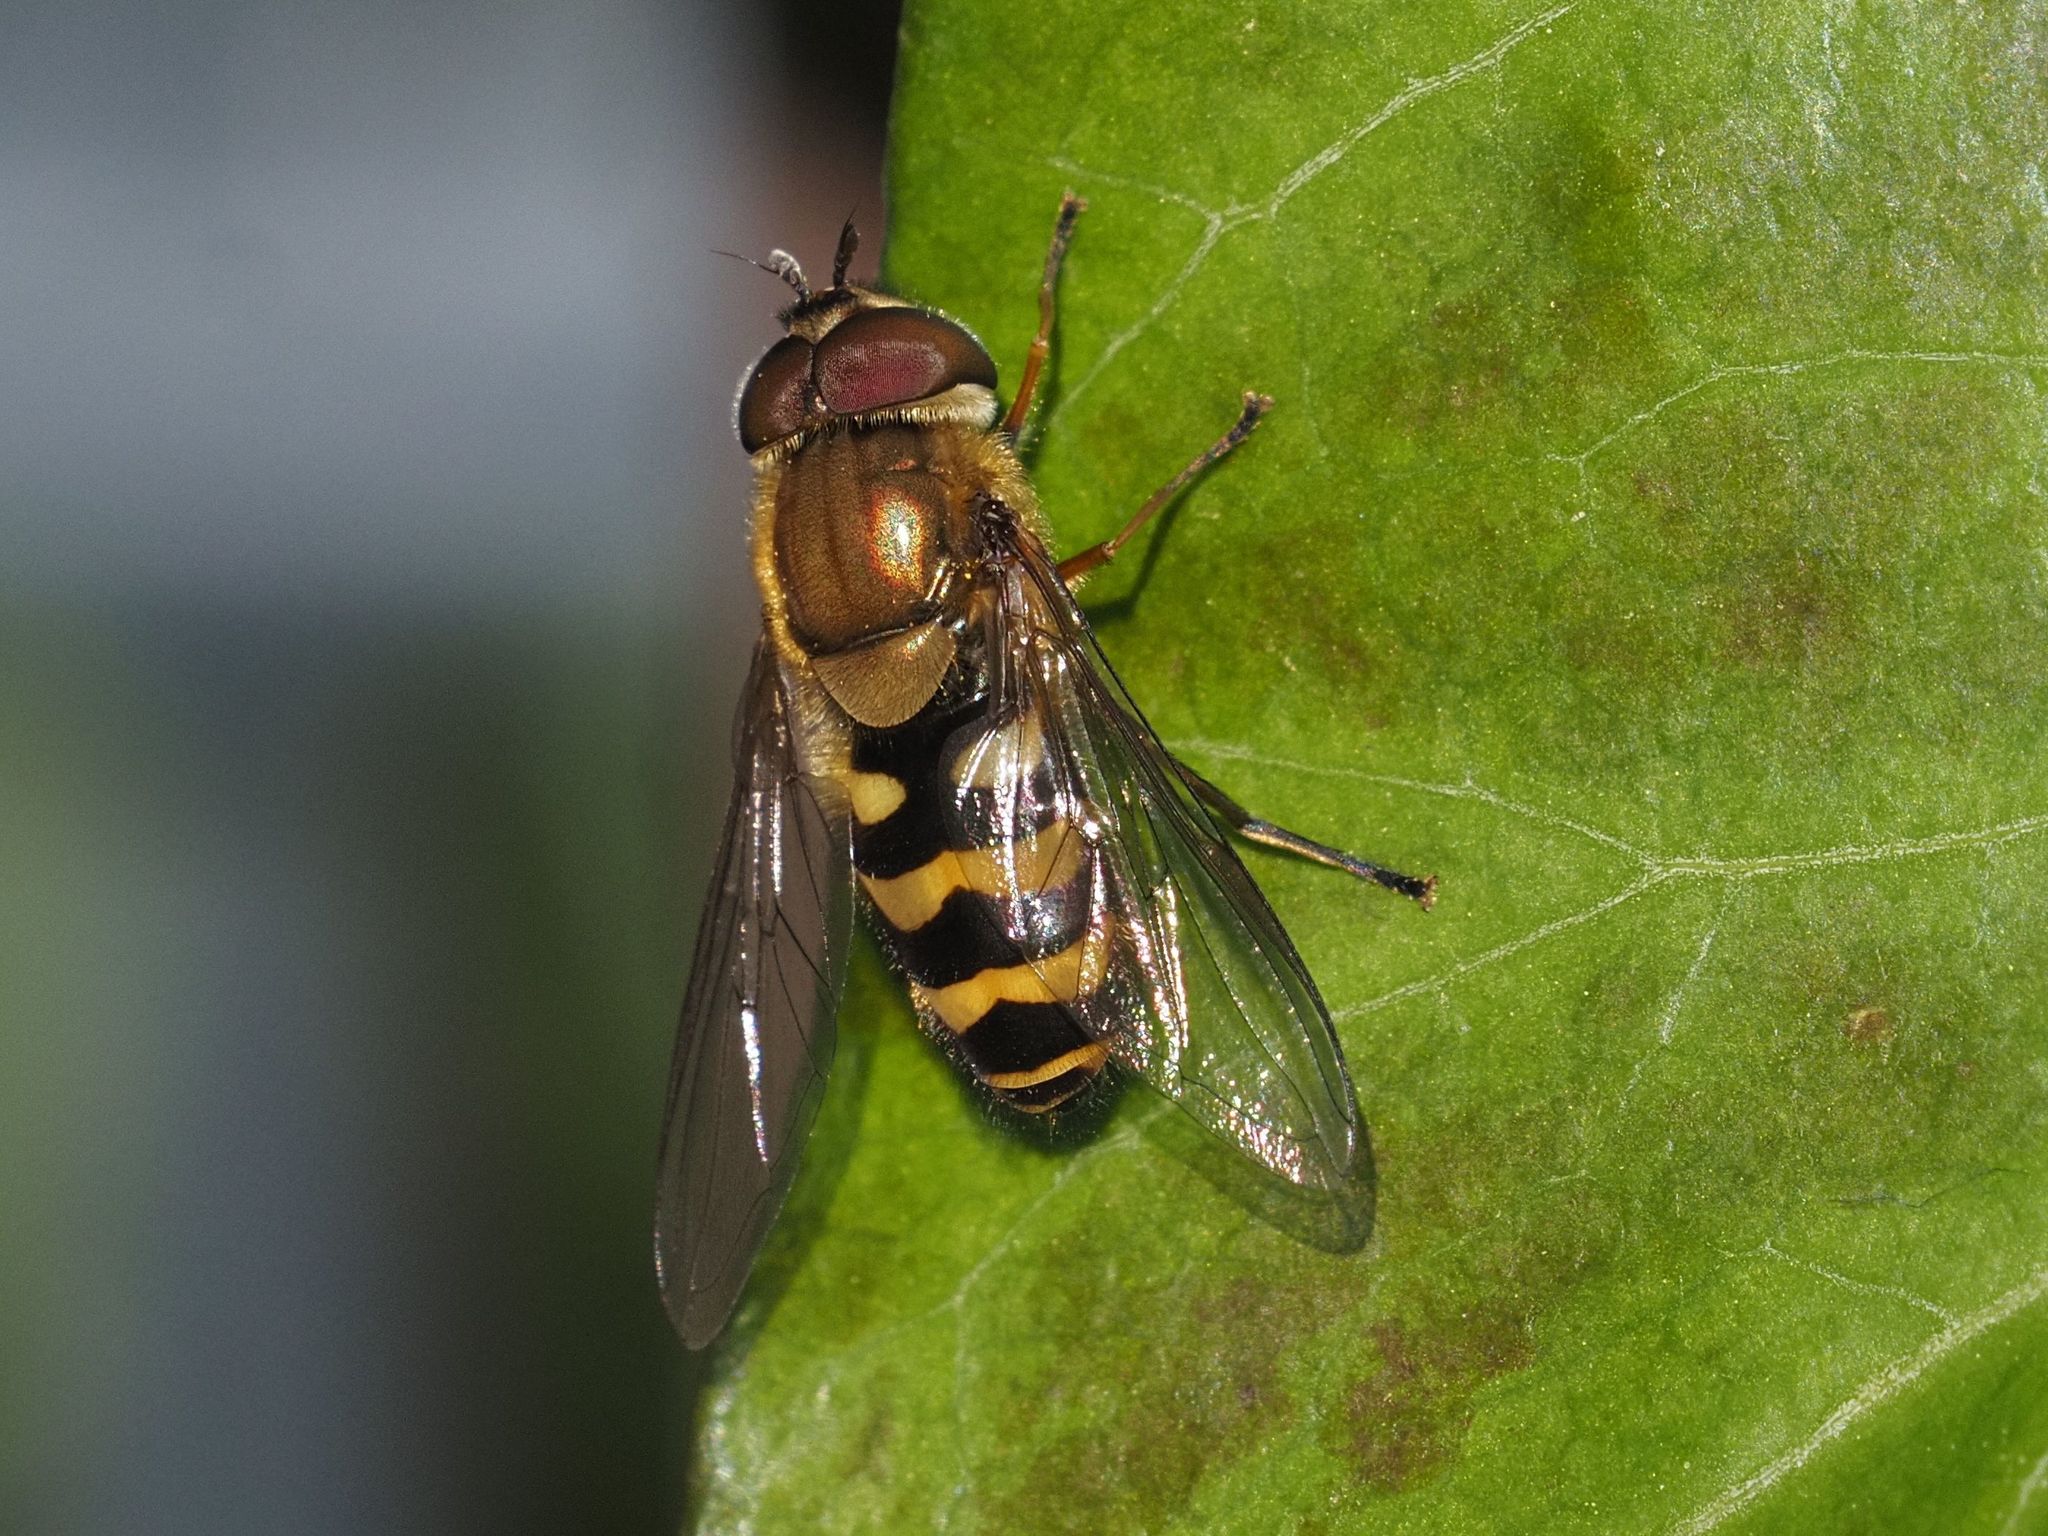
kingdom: Animalia
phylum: Arthropoda
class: Insecta
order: Diptera
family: Syrphidae
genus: Syrphus
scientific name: Syrphus torvus
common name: Hairy-eyed flower fly
